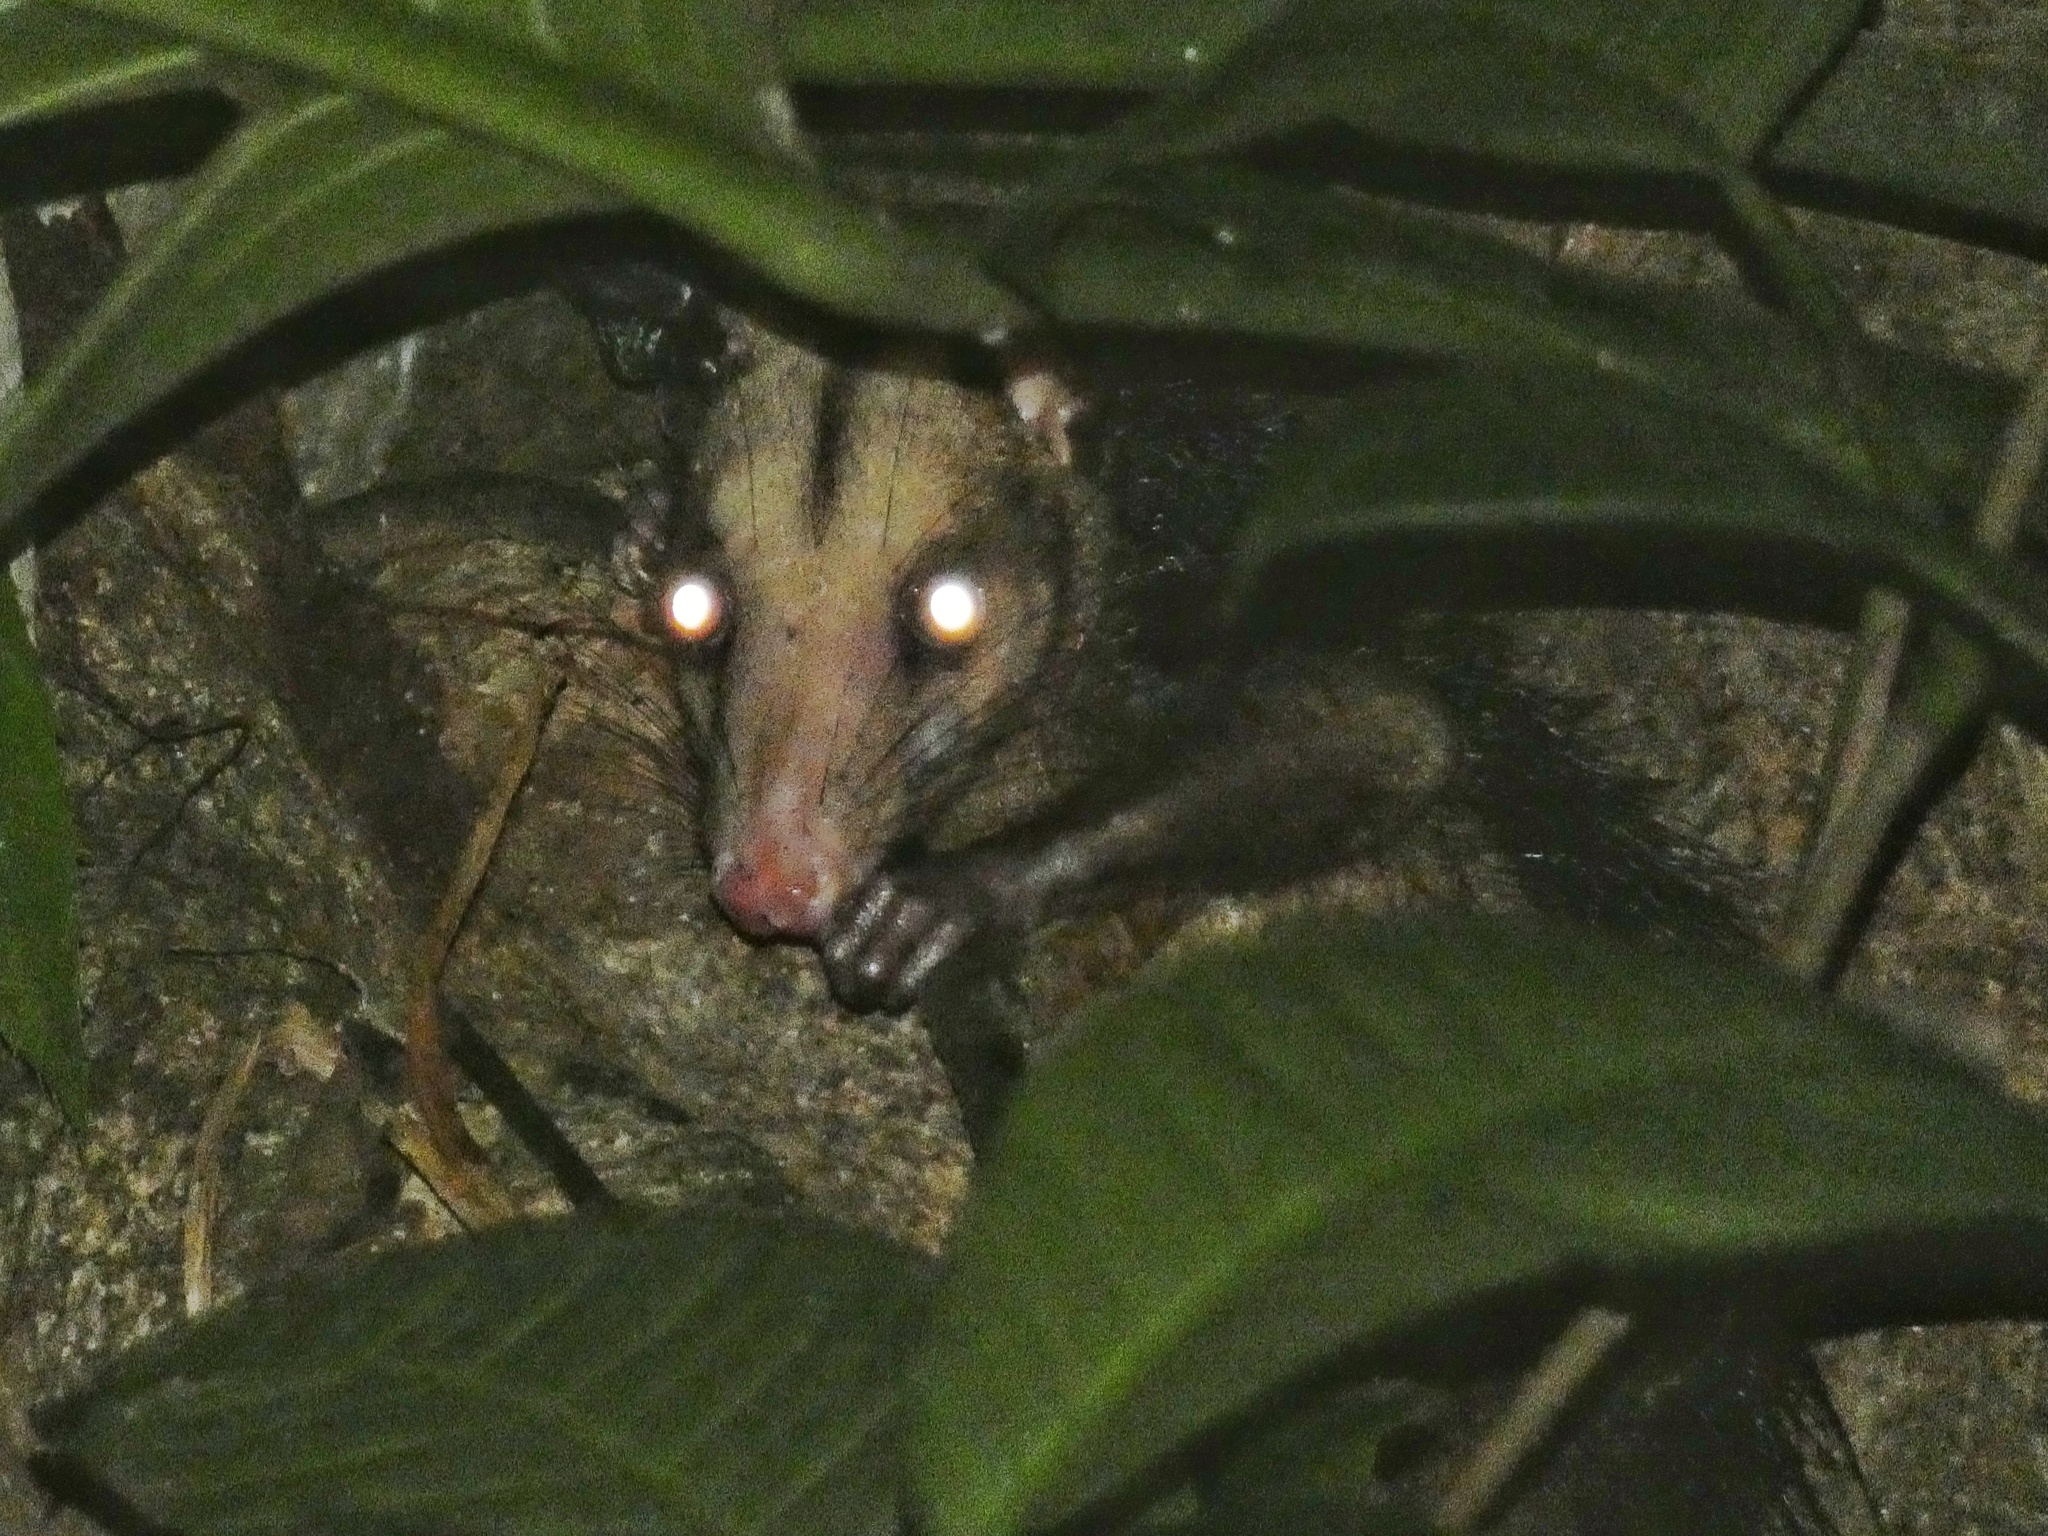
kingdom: Animalia
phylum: Chordata
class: Mammalia
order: Didelphimorphia
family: Didelphidae
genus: Didelphis
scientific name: Didelphis marsupialis
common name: Common opossum
